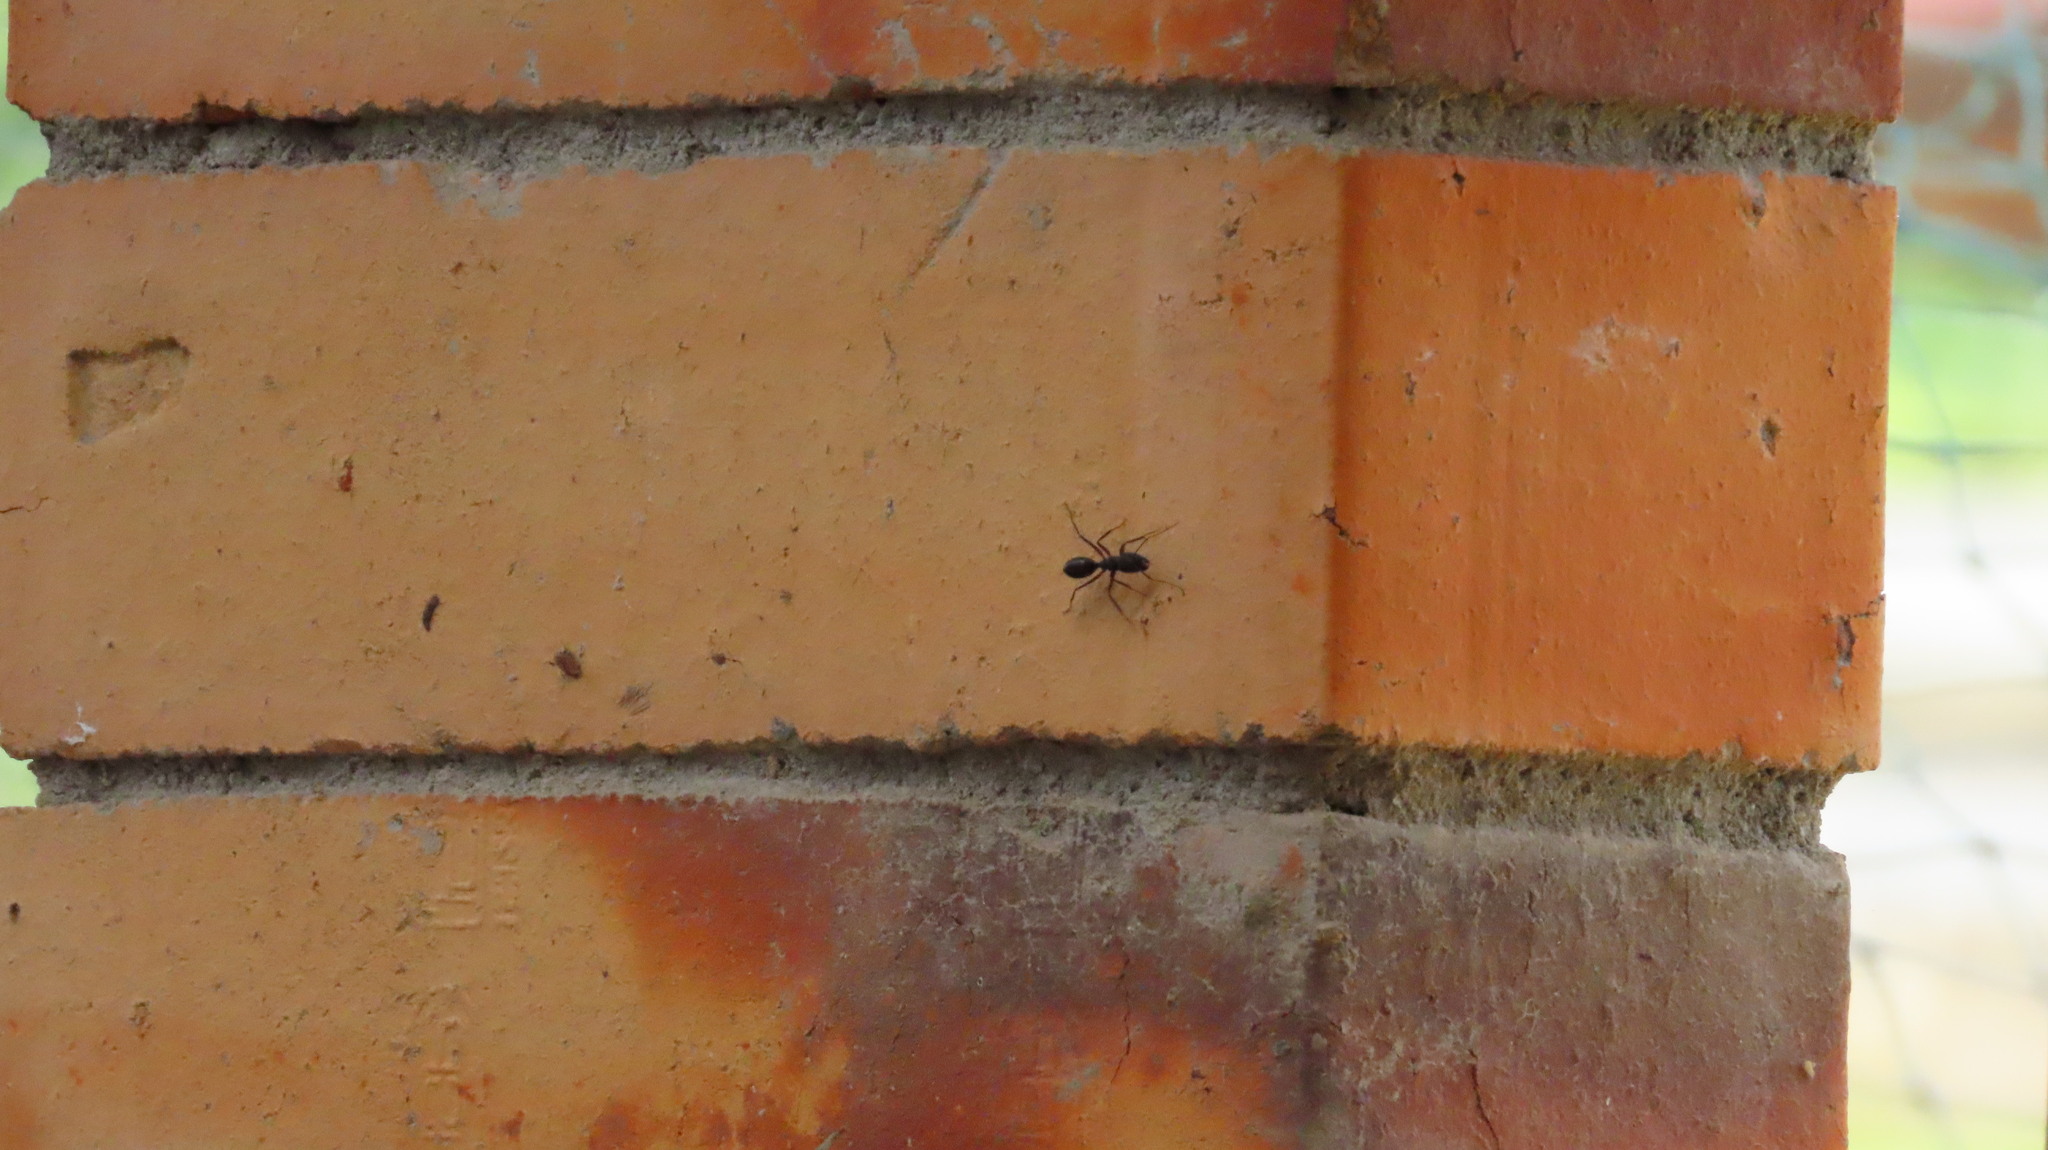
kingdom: Animalia
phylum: Arthropoda
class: Insecta
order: Hymenoptera
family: Formicidae
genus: Camponotus
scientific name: Camponotus compressus
